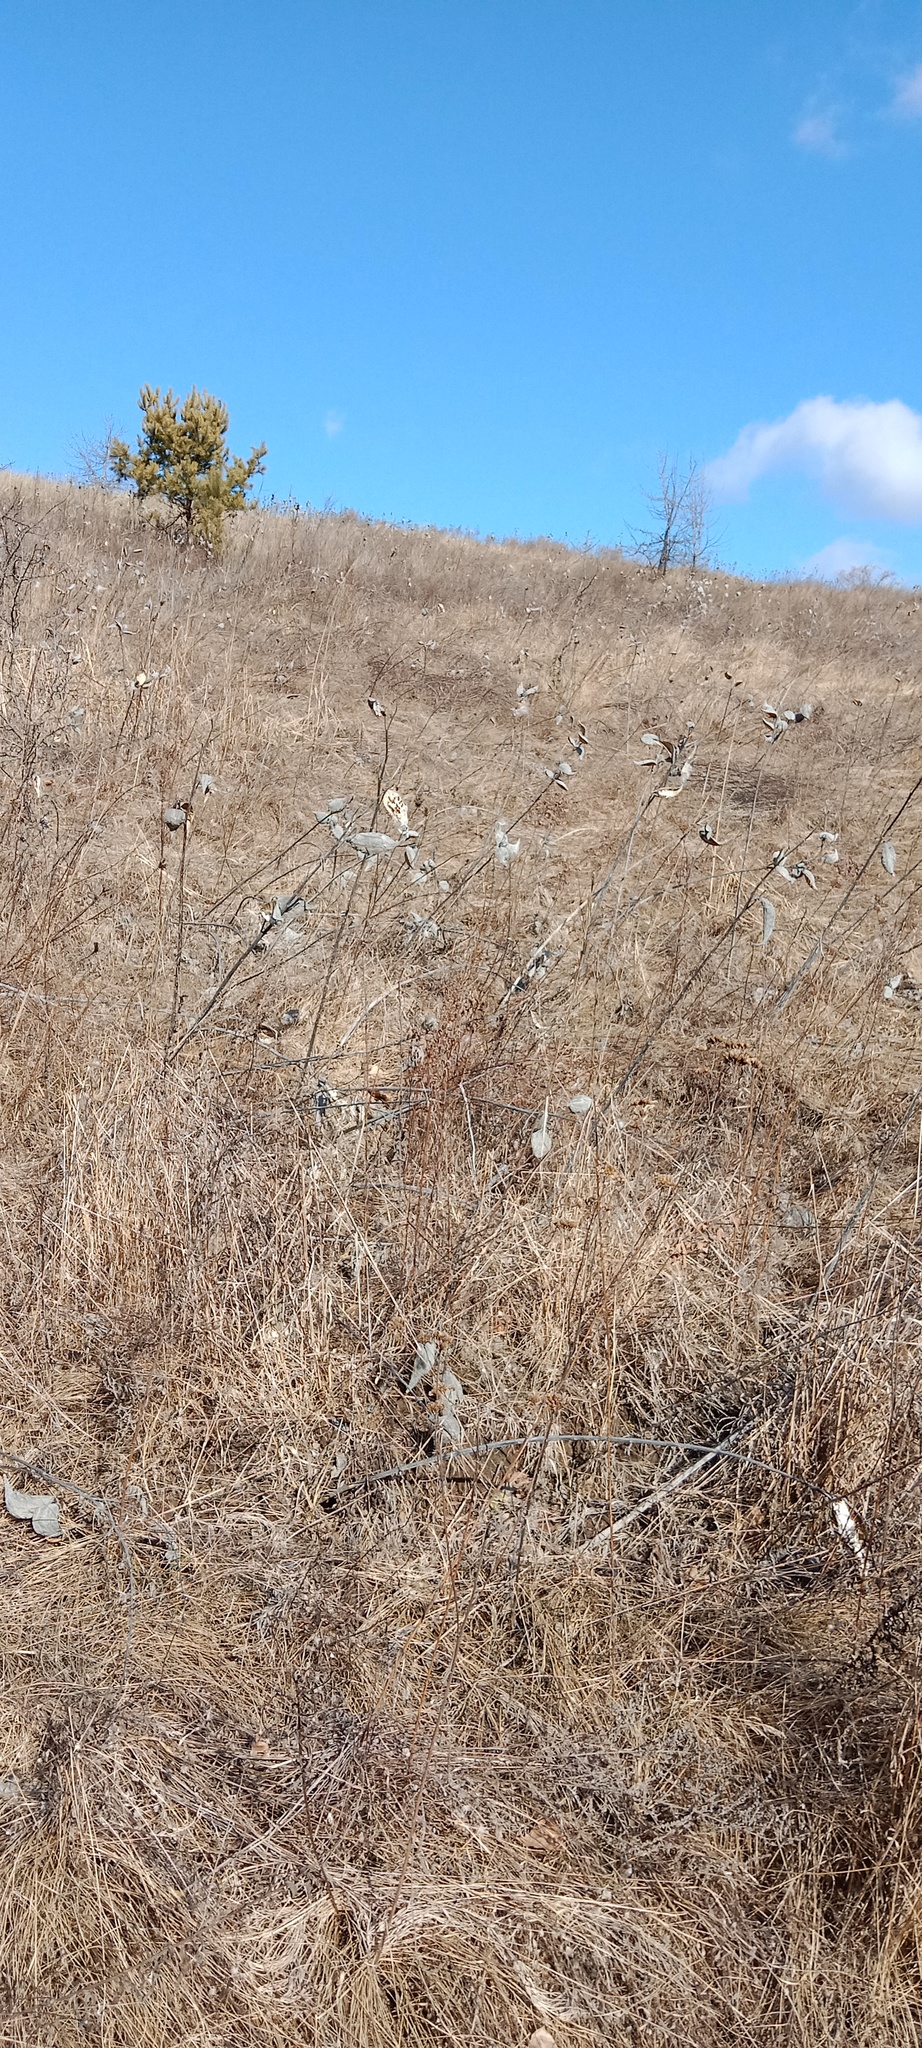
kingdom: Plantae
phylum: Tracheophyta
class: Magnoliopsida
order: Gentianales
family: Apocynaceae
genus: Asclepias
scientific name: Asclepias syriaca
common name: Common milkweed
